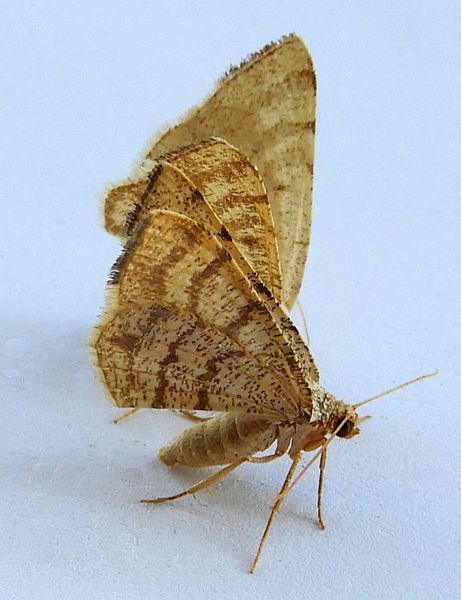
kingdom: Animalia
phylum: Arthropoda
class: Insecta
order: Lepidoptera
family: Geometridae
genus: Macaria
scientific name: Macaria octolineata
